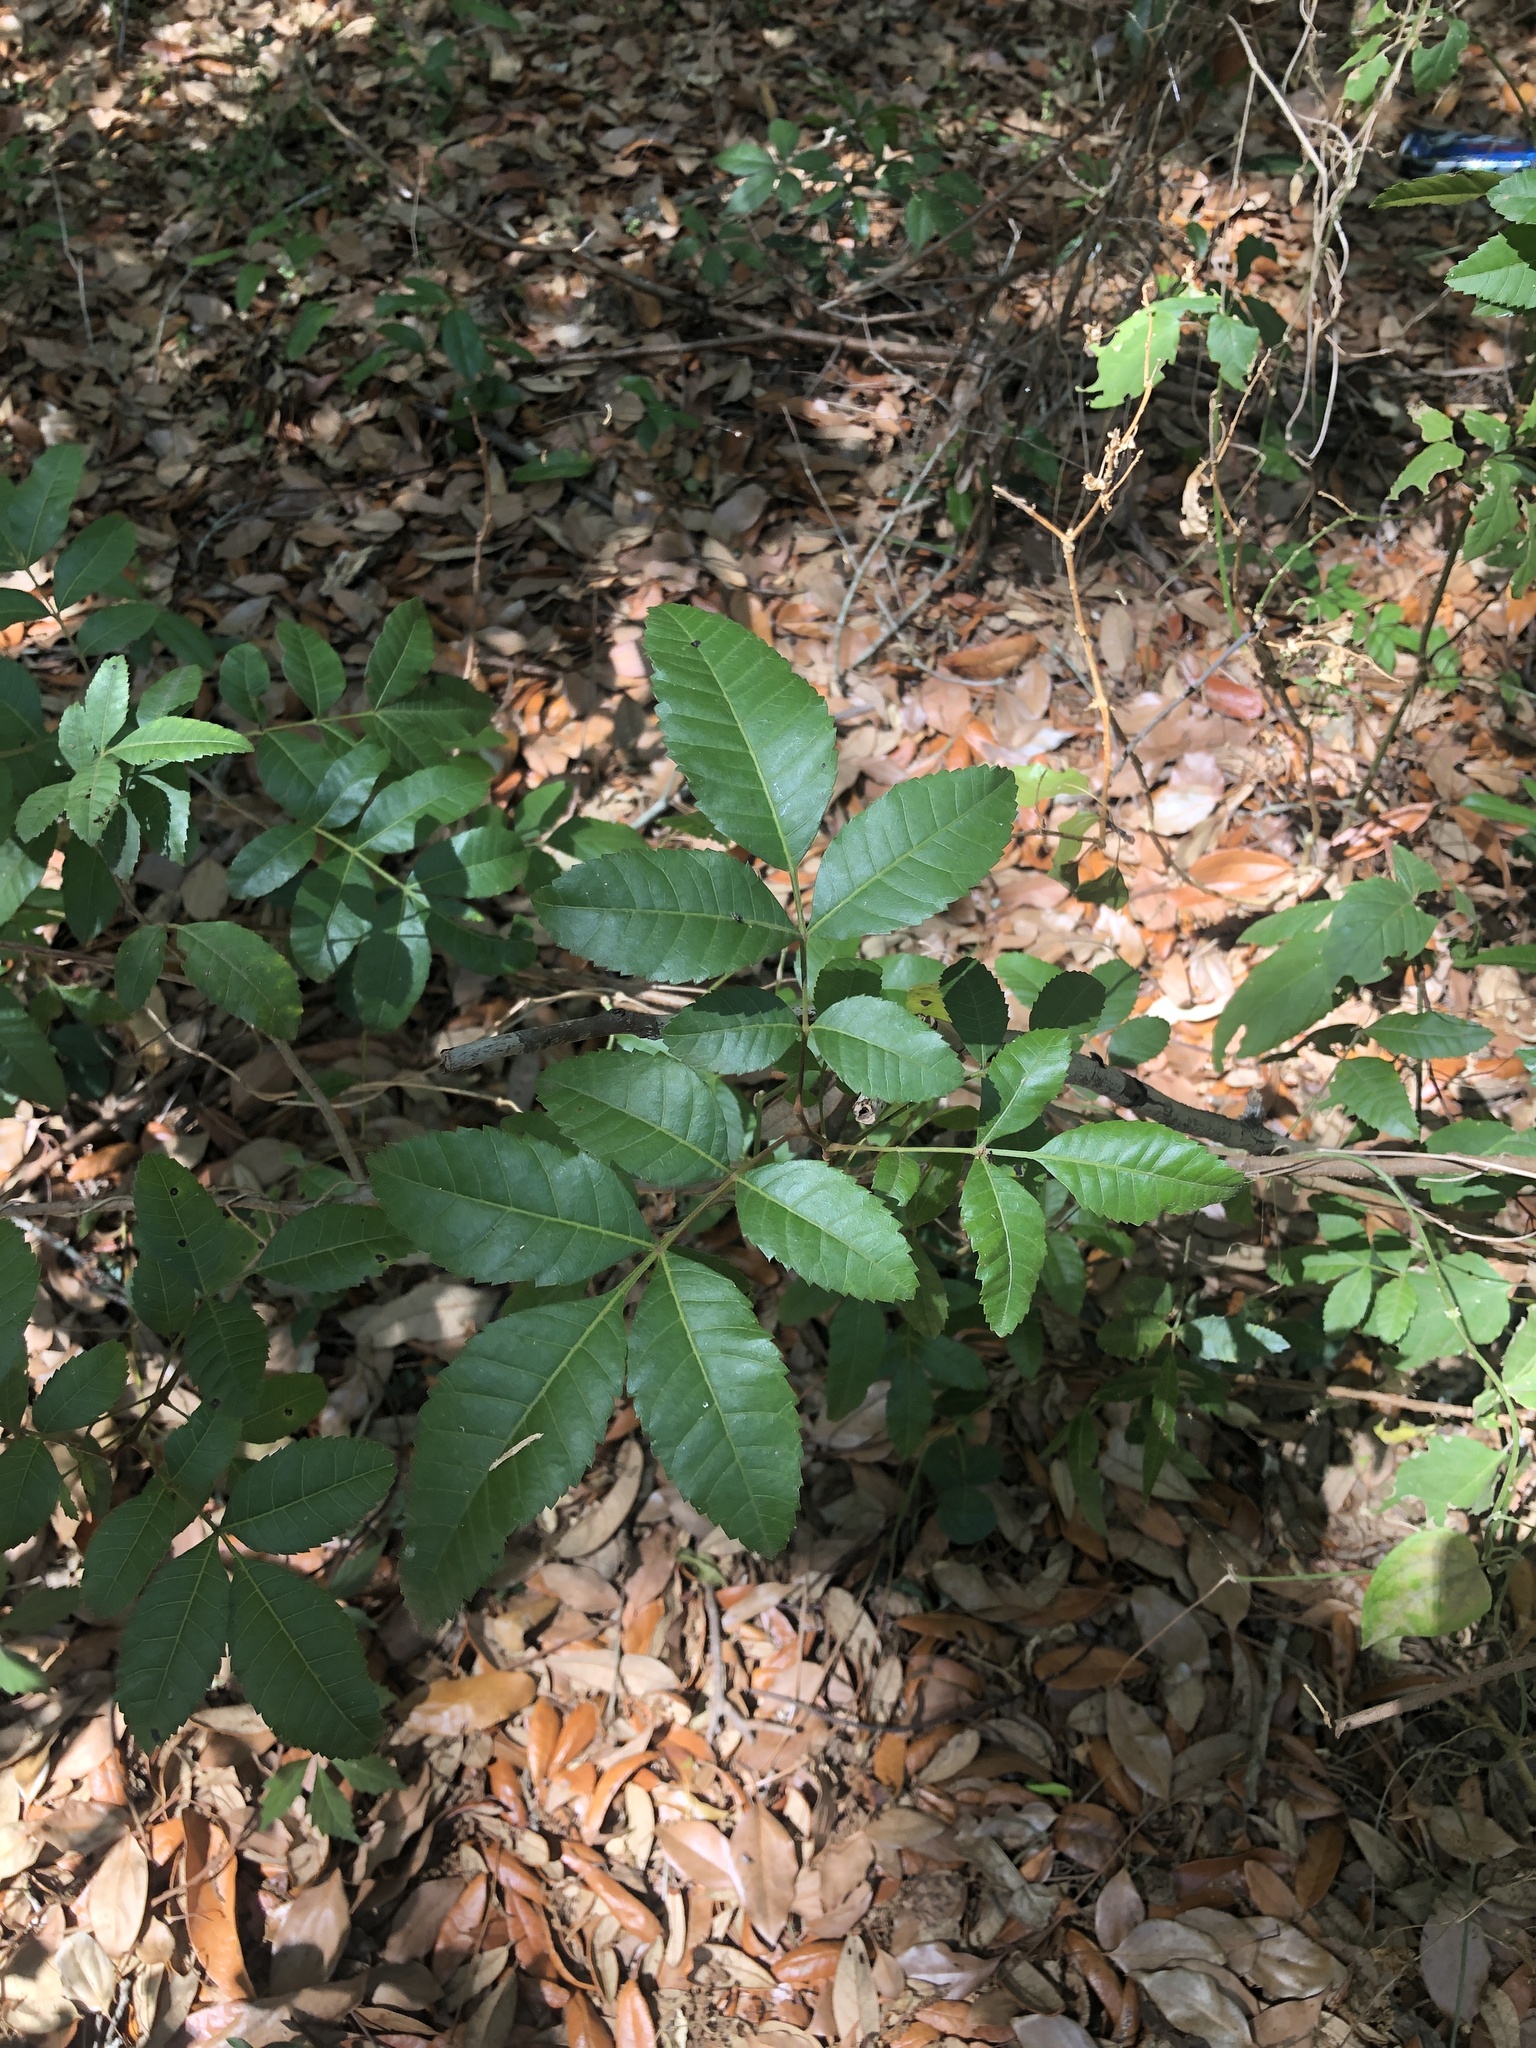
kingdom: Plantae
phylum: Tracheophyta
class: Magnoliopsida
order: Sapindales
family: Anacardiaceae
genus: Schinus
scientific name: Schinus terebinthifolia
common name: Brazilian peppertree
